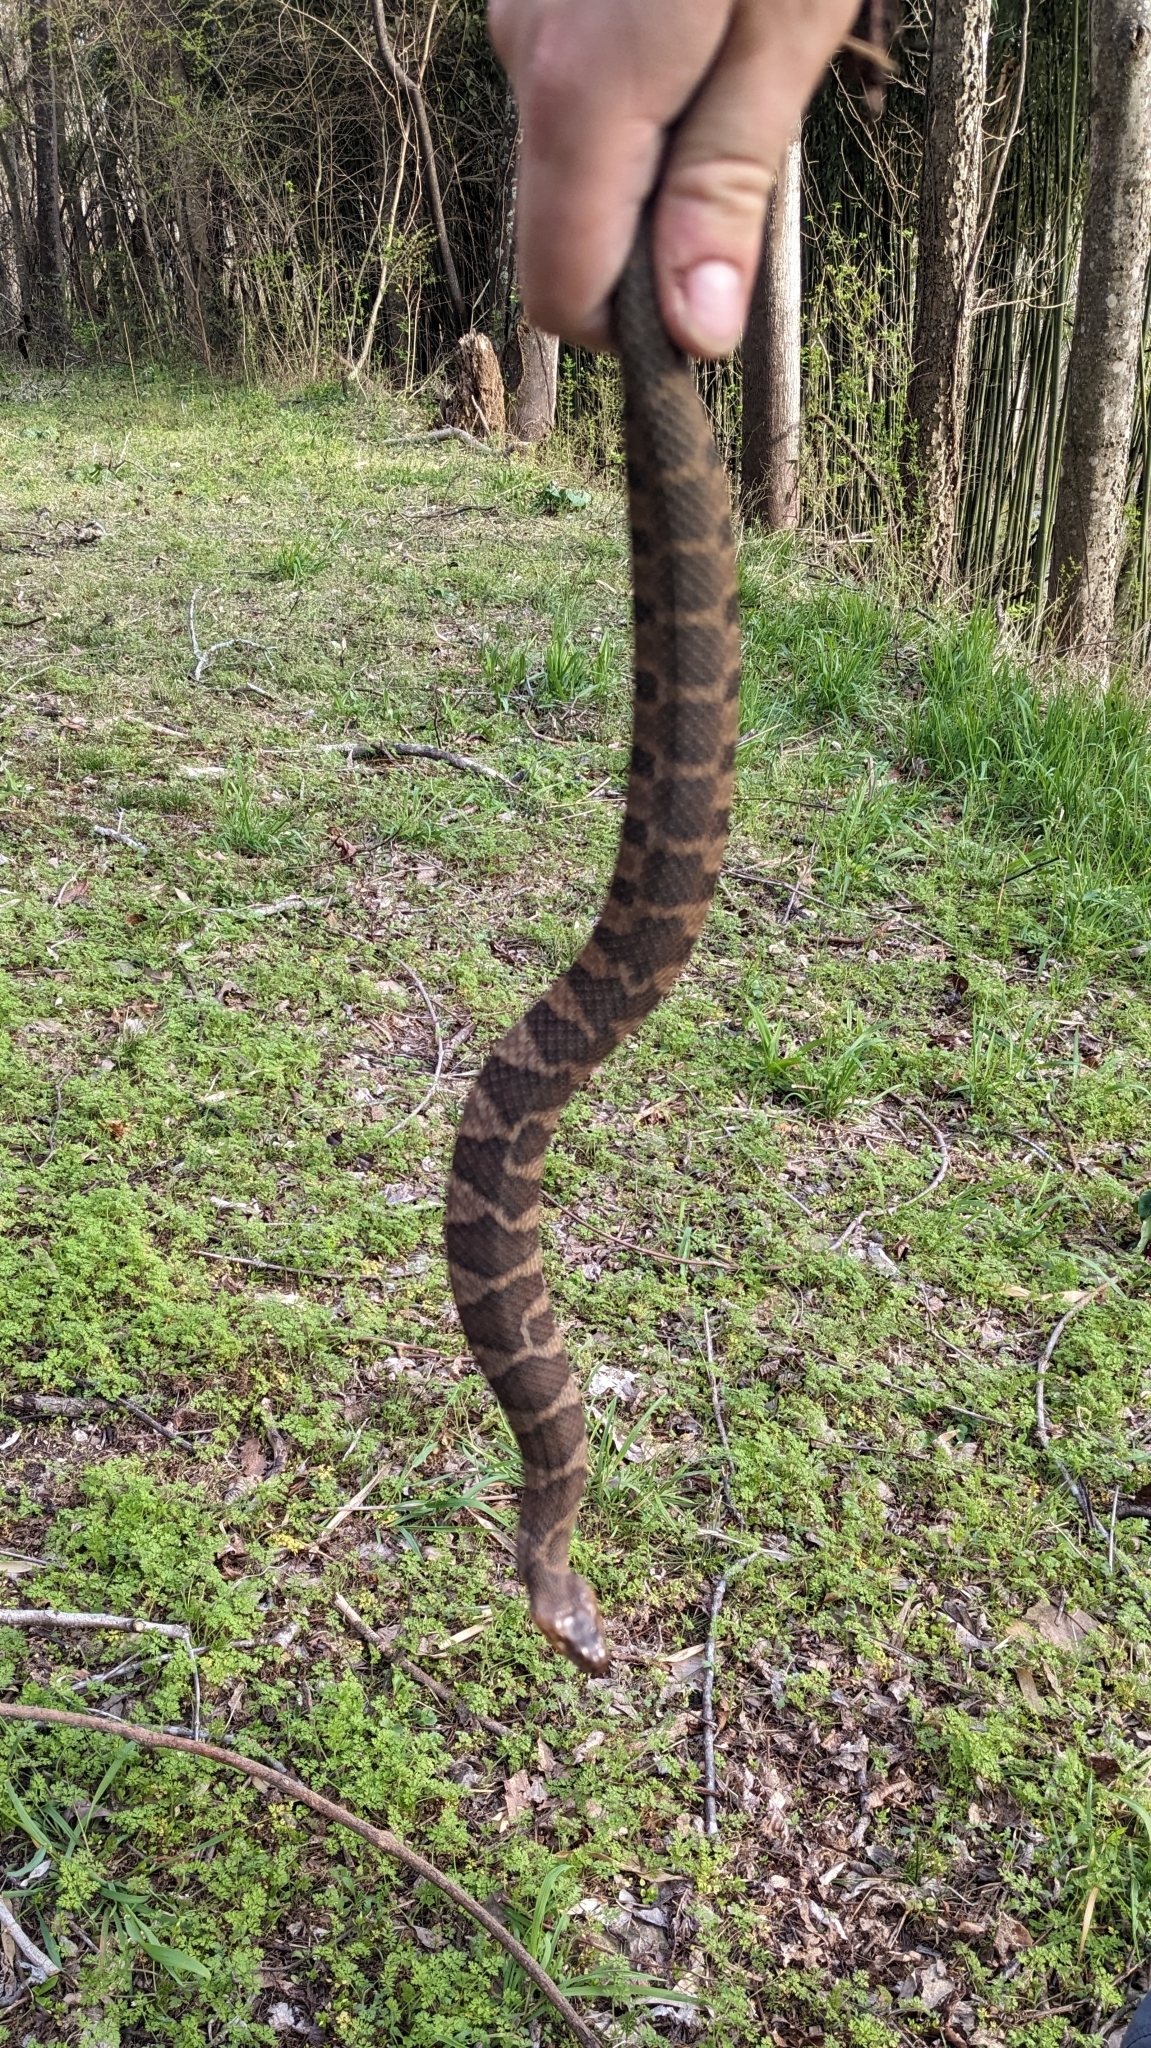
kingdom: Animalia
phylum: Chordata
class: Squamata
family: Colubridae
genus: Nerodia
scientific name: Nerodia sipedon
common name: Northern water snake
